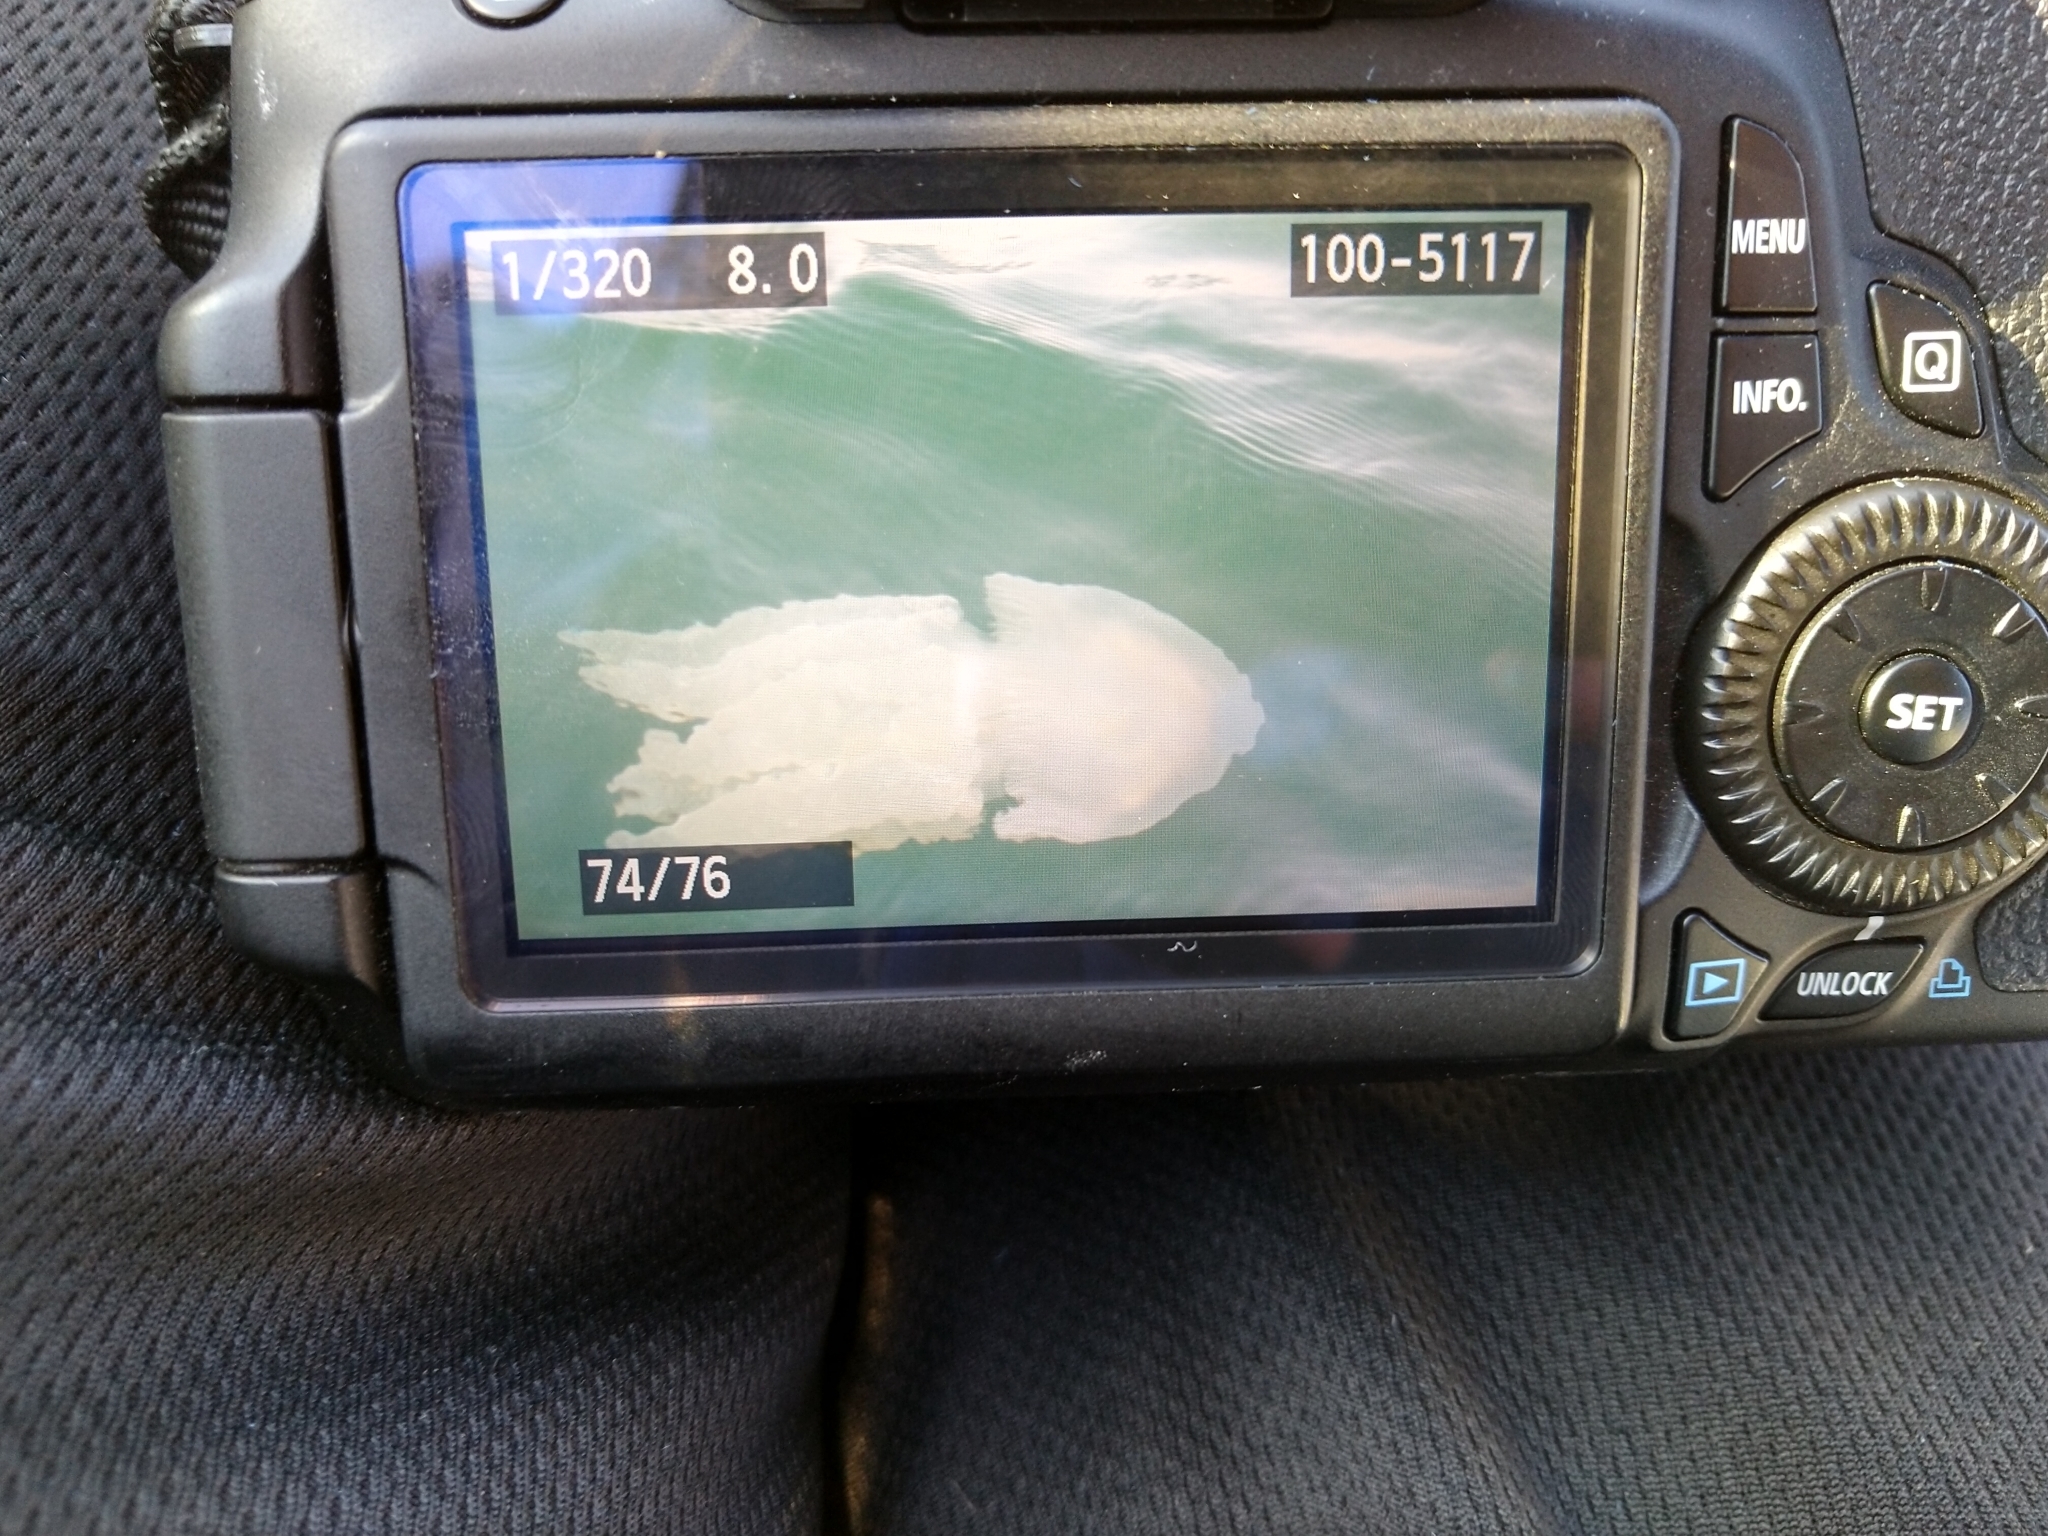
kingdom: Animalia
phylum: Cnidaria
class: Scyphozoa
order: Rhizostomeae
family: Catostylidae
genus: Catostylus
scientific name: Catostylus mosaicus
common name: Blue blubber
